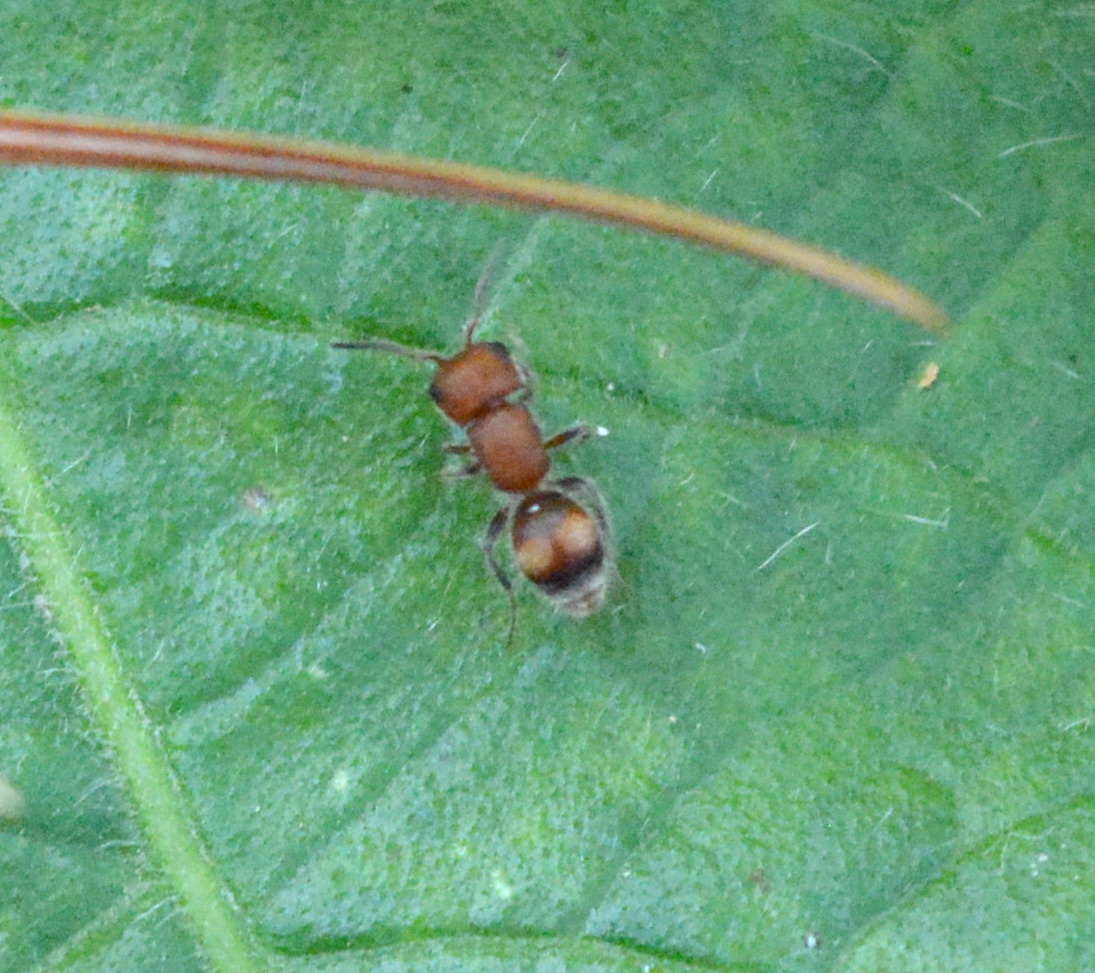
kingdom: Animalia
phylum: Arthropoda
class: Insecta
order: Hymenoptera
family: Mutillidae
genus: Pseudomethoca
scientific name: Pseudomethoca
